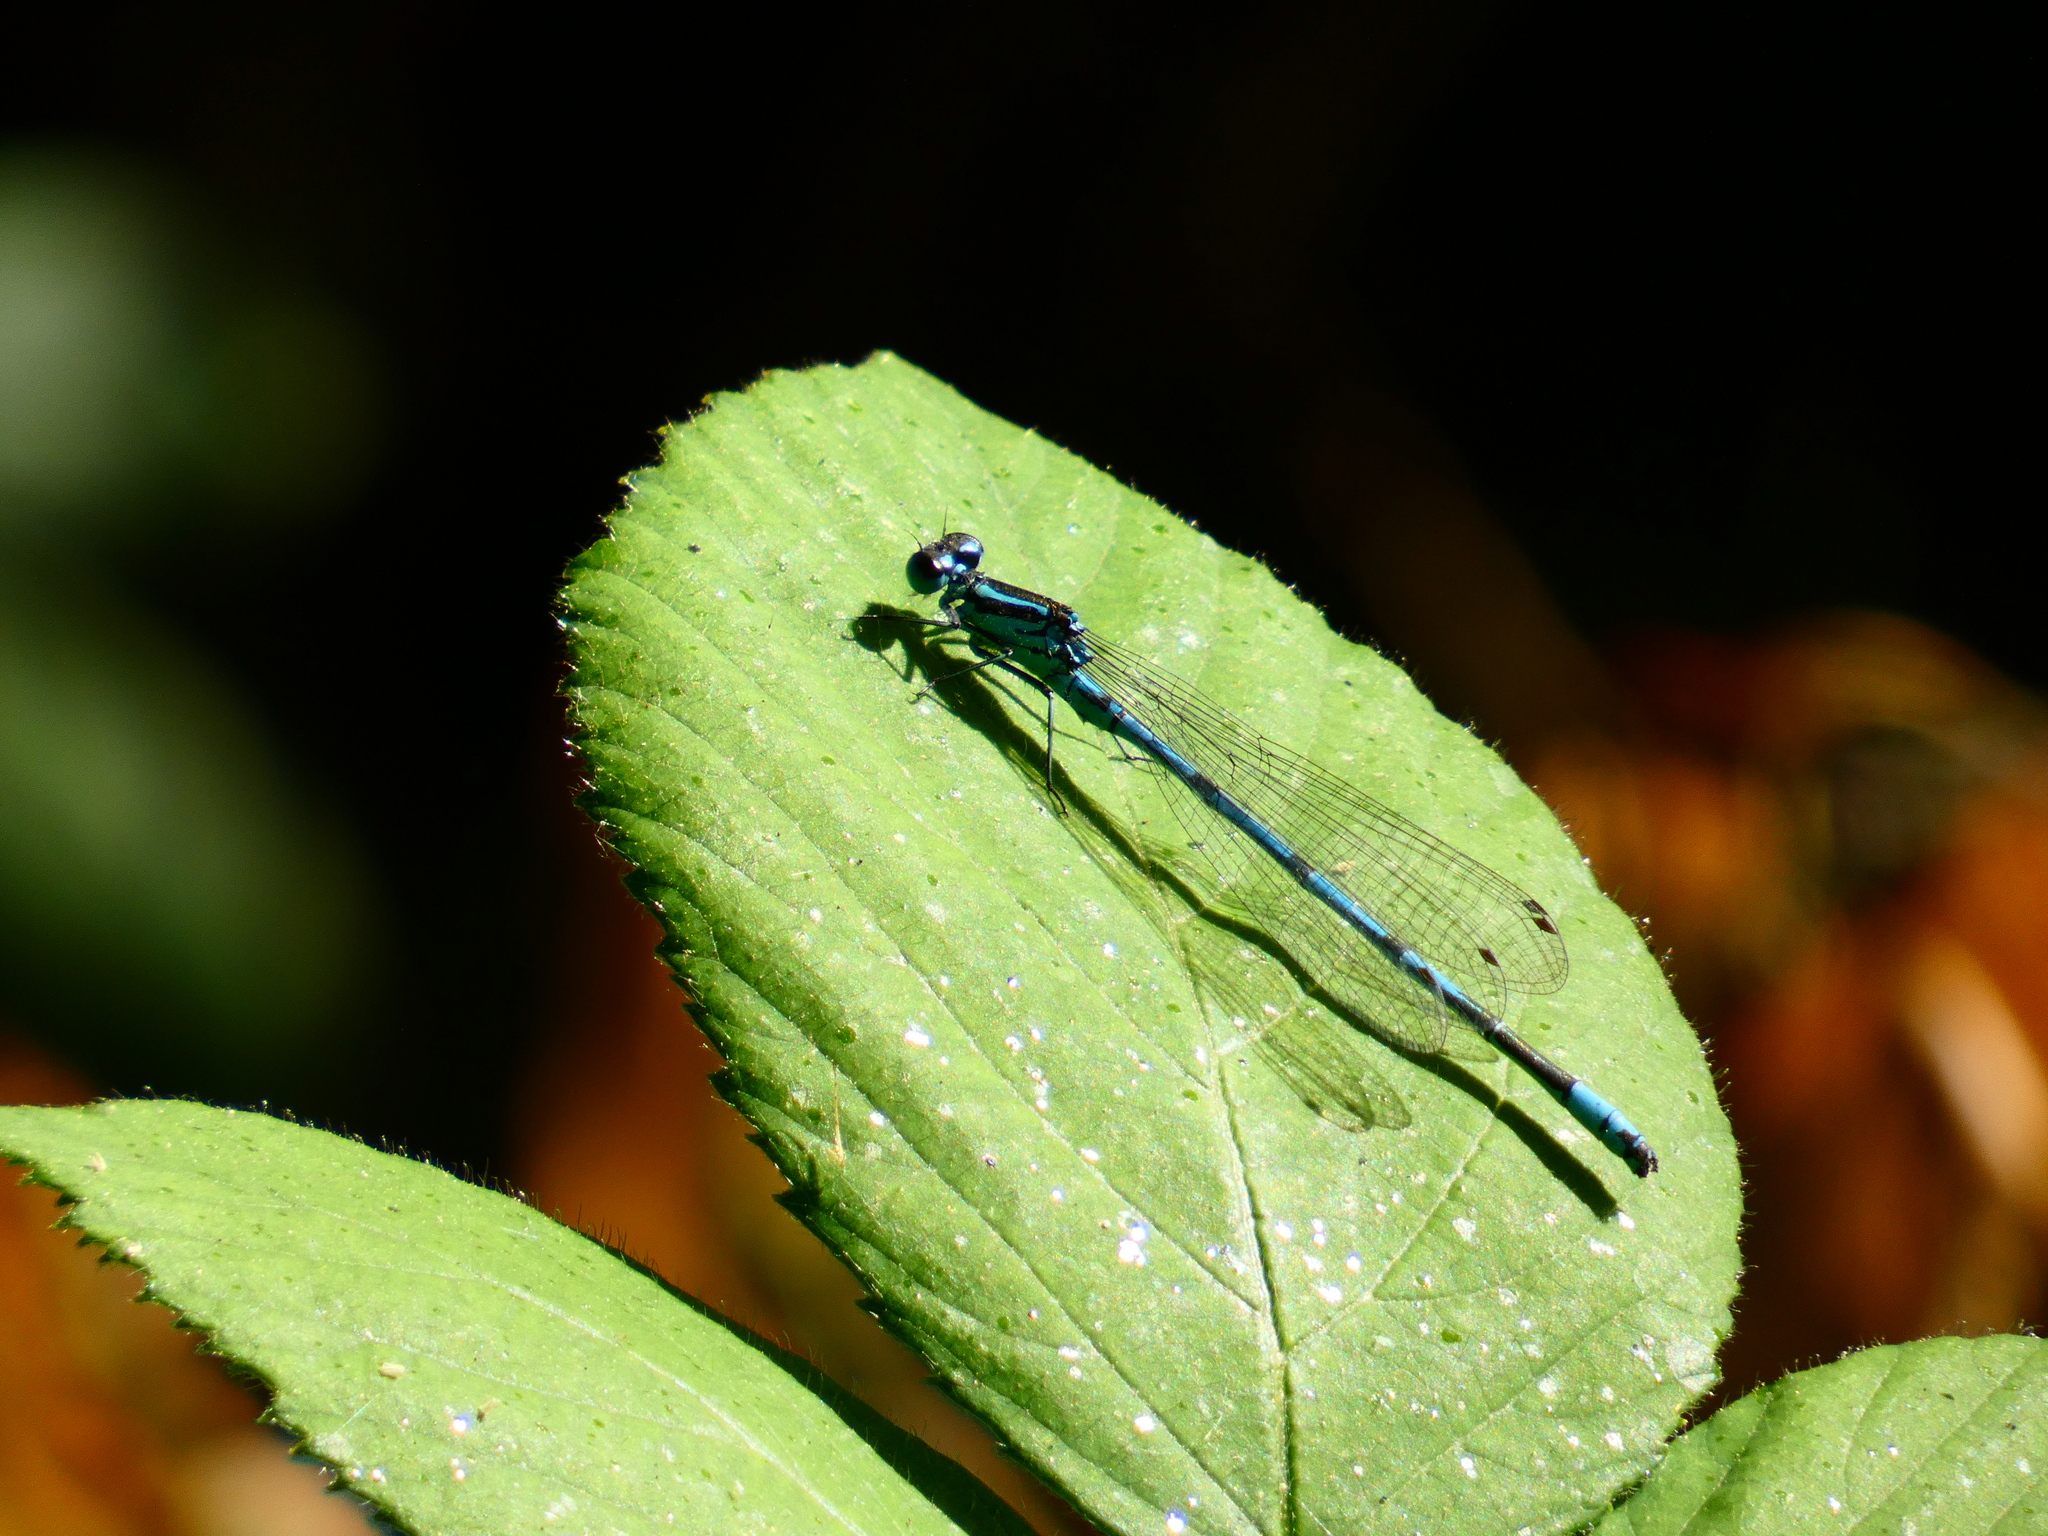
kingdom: Animalia
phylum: Arthropoda
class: Insecta
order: Odonata
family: Coenagrionidae
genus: Coenagrion
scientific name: Coenagrion puella
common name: Azure damselfly
